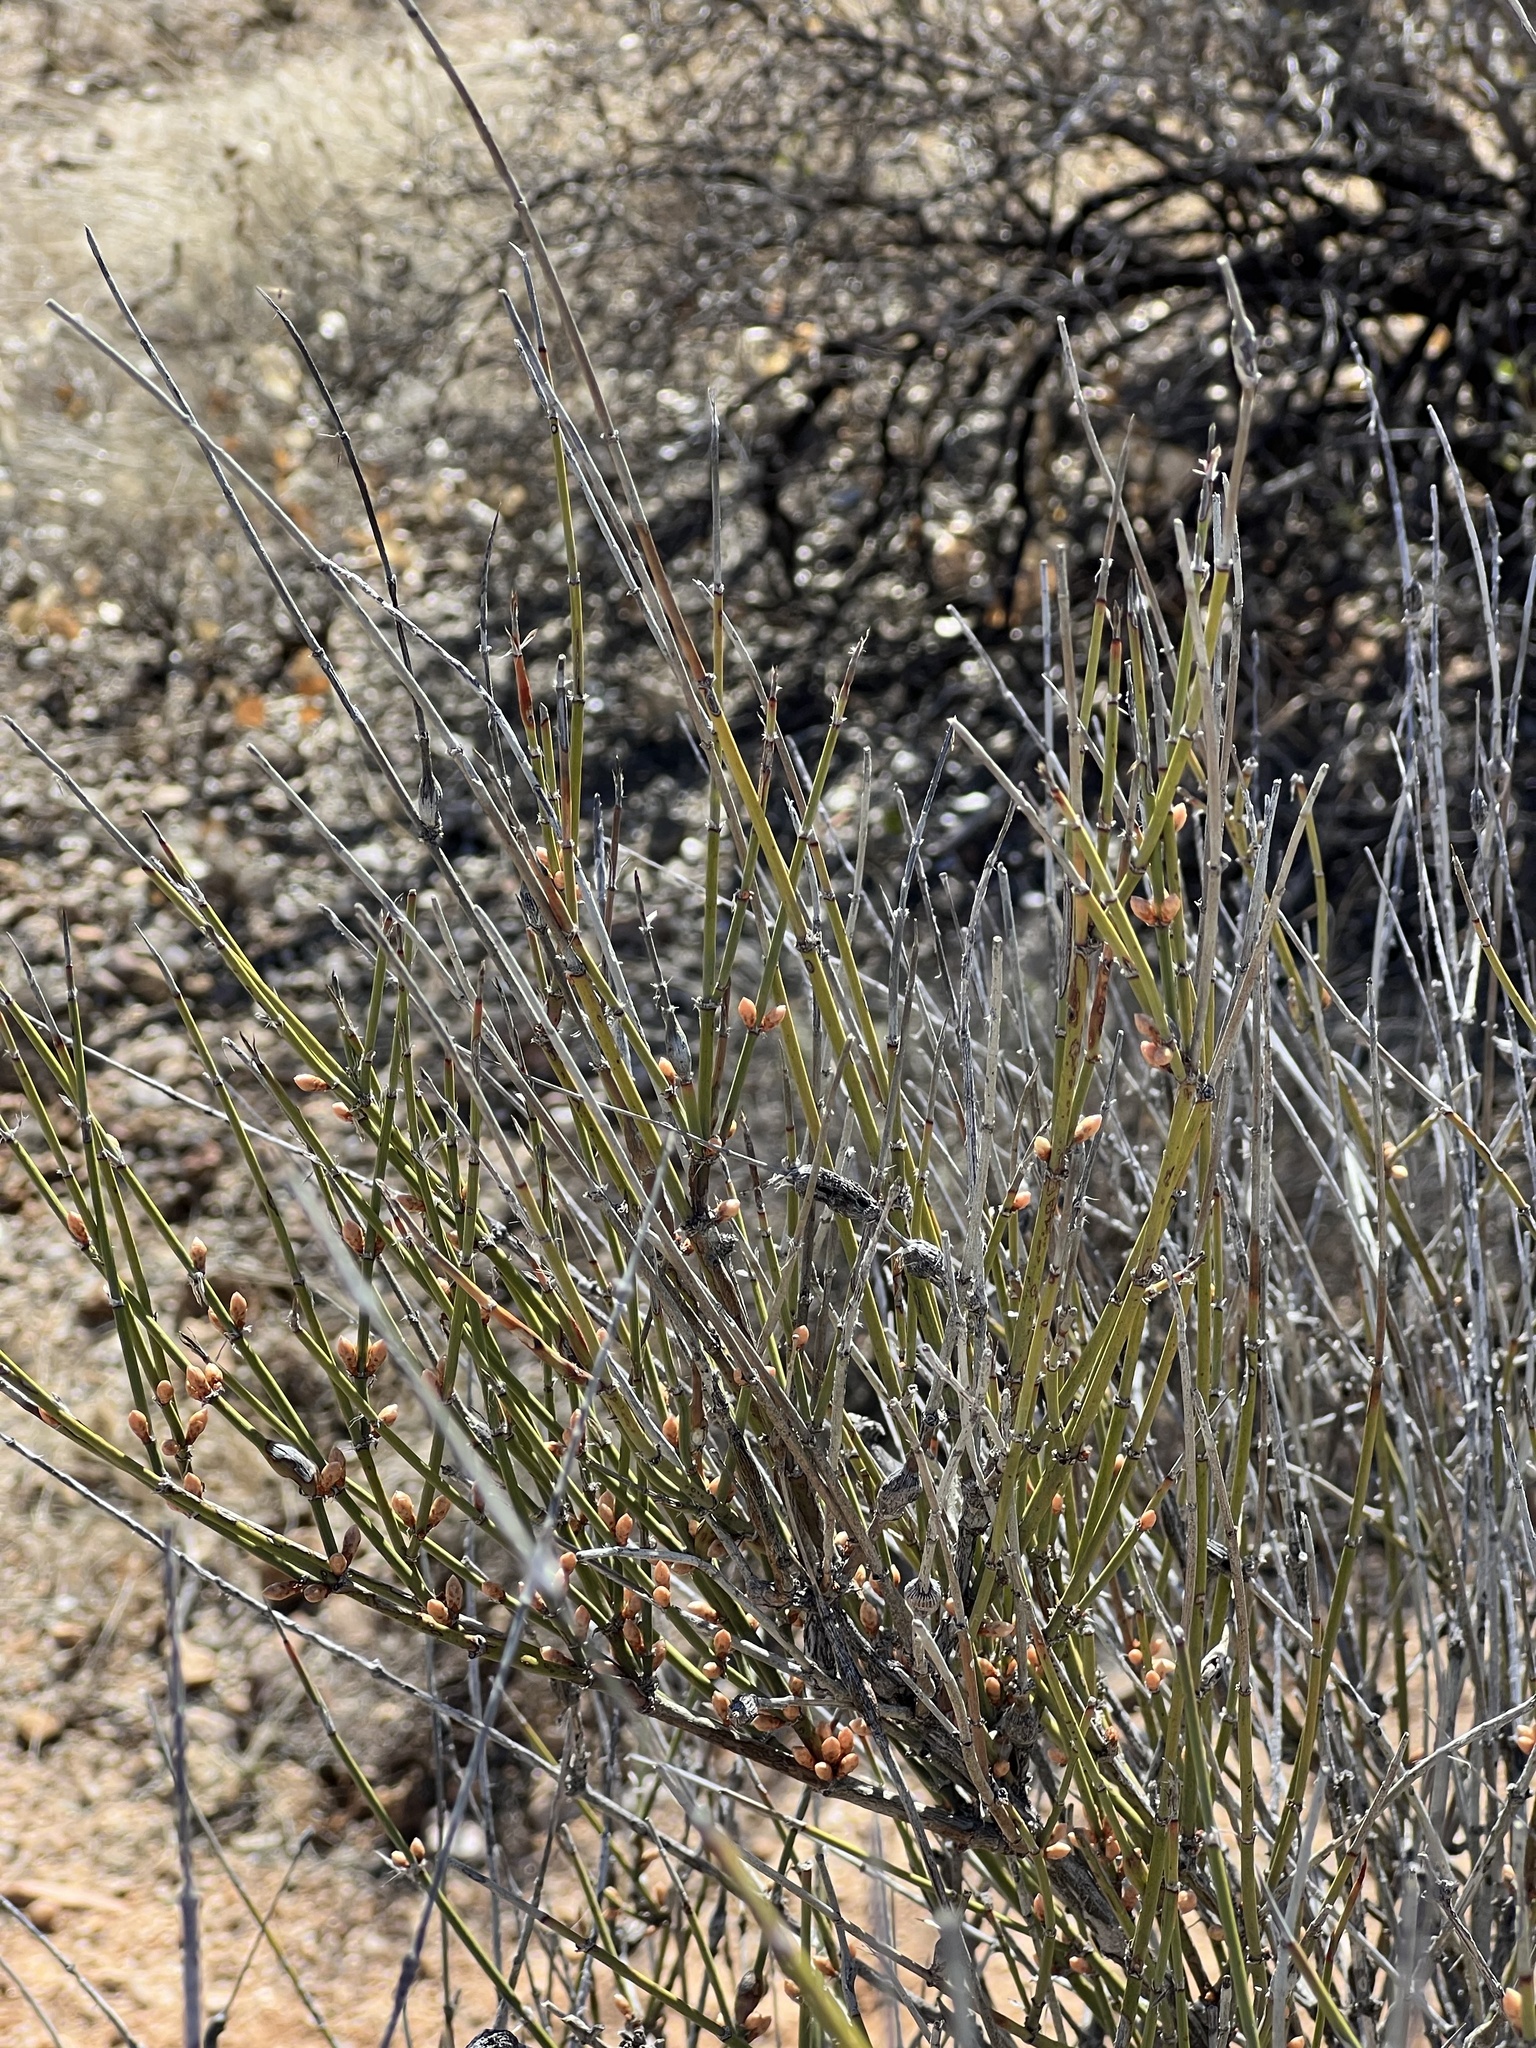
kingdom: Plantae
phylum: Tracheophyta
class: Gnetopsida
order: Ephedrales
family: Ephedraceae
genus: Ephedra
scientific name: Ephedra trifurca
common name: Mexican-tea
